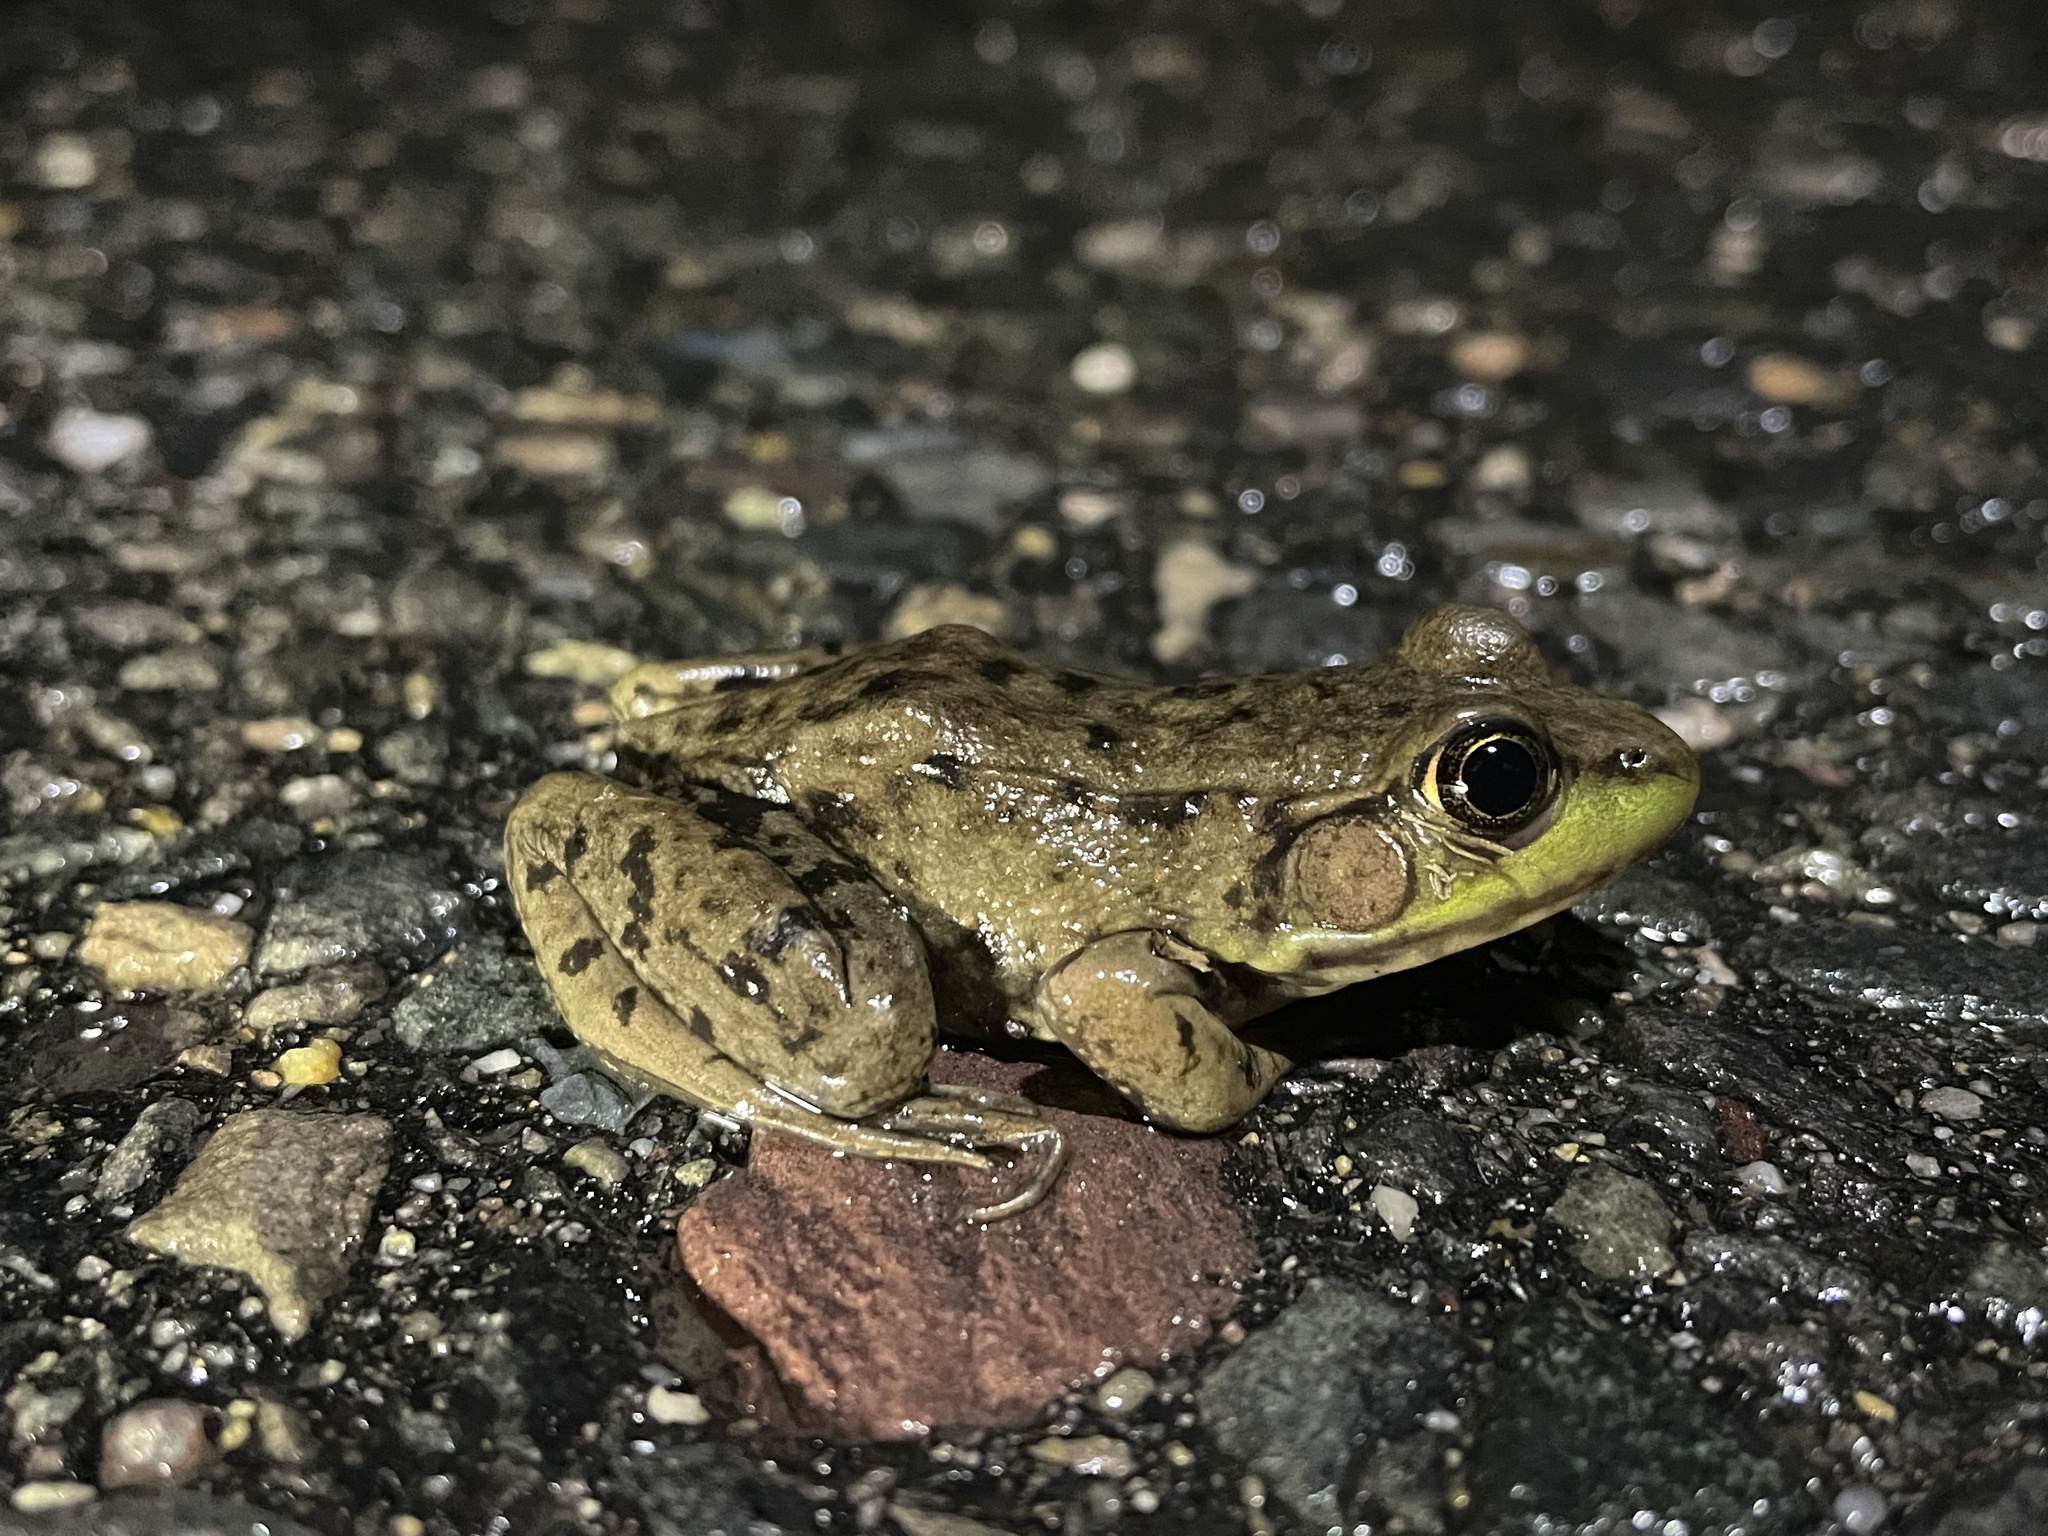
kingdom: Animalia
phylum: Chordata
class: Amphibia
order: Anura
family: Ranidae
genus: Lithobates
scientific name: Lithobates clamitans
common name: Green frog
